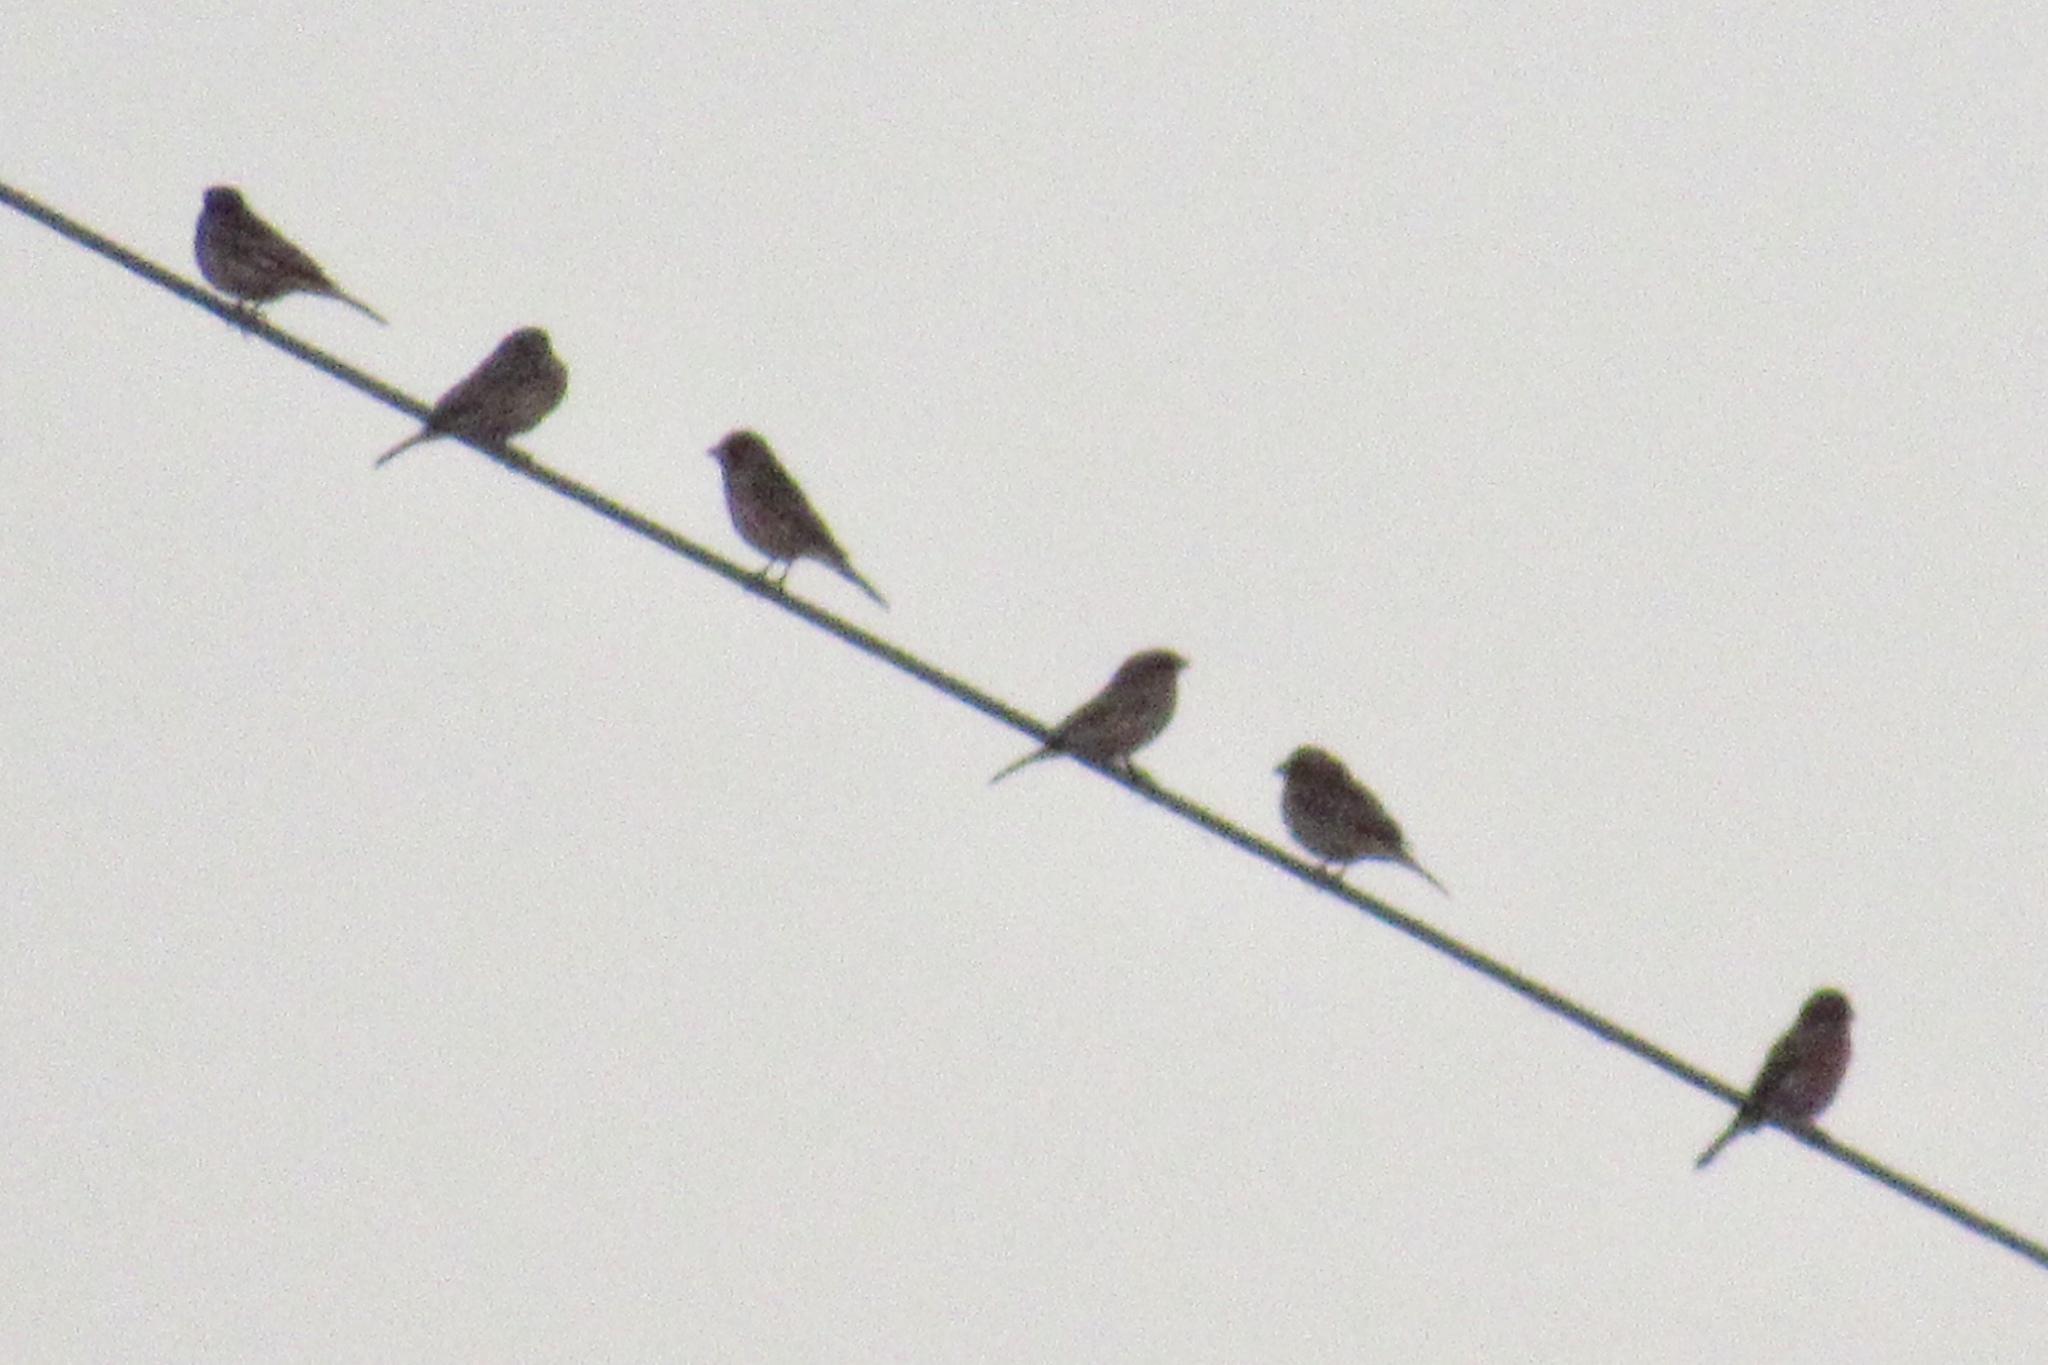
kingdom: Animalia
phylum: Chordata
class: Aves
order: Passeriformes
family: Fringillidae
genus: Haemorhous
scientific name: Haemorhous mexicanus
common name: House finch
